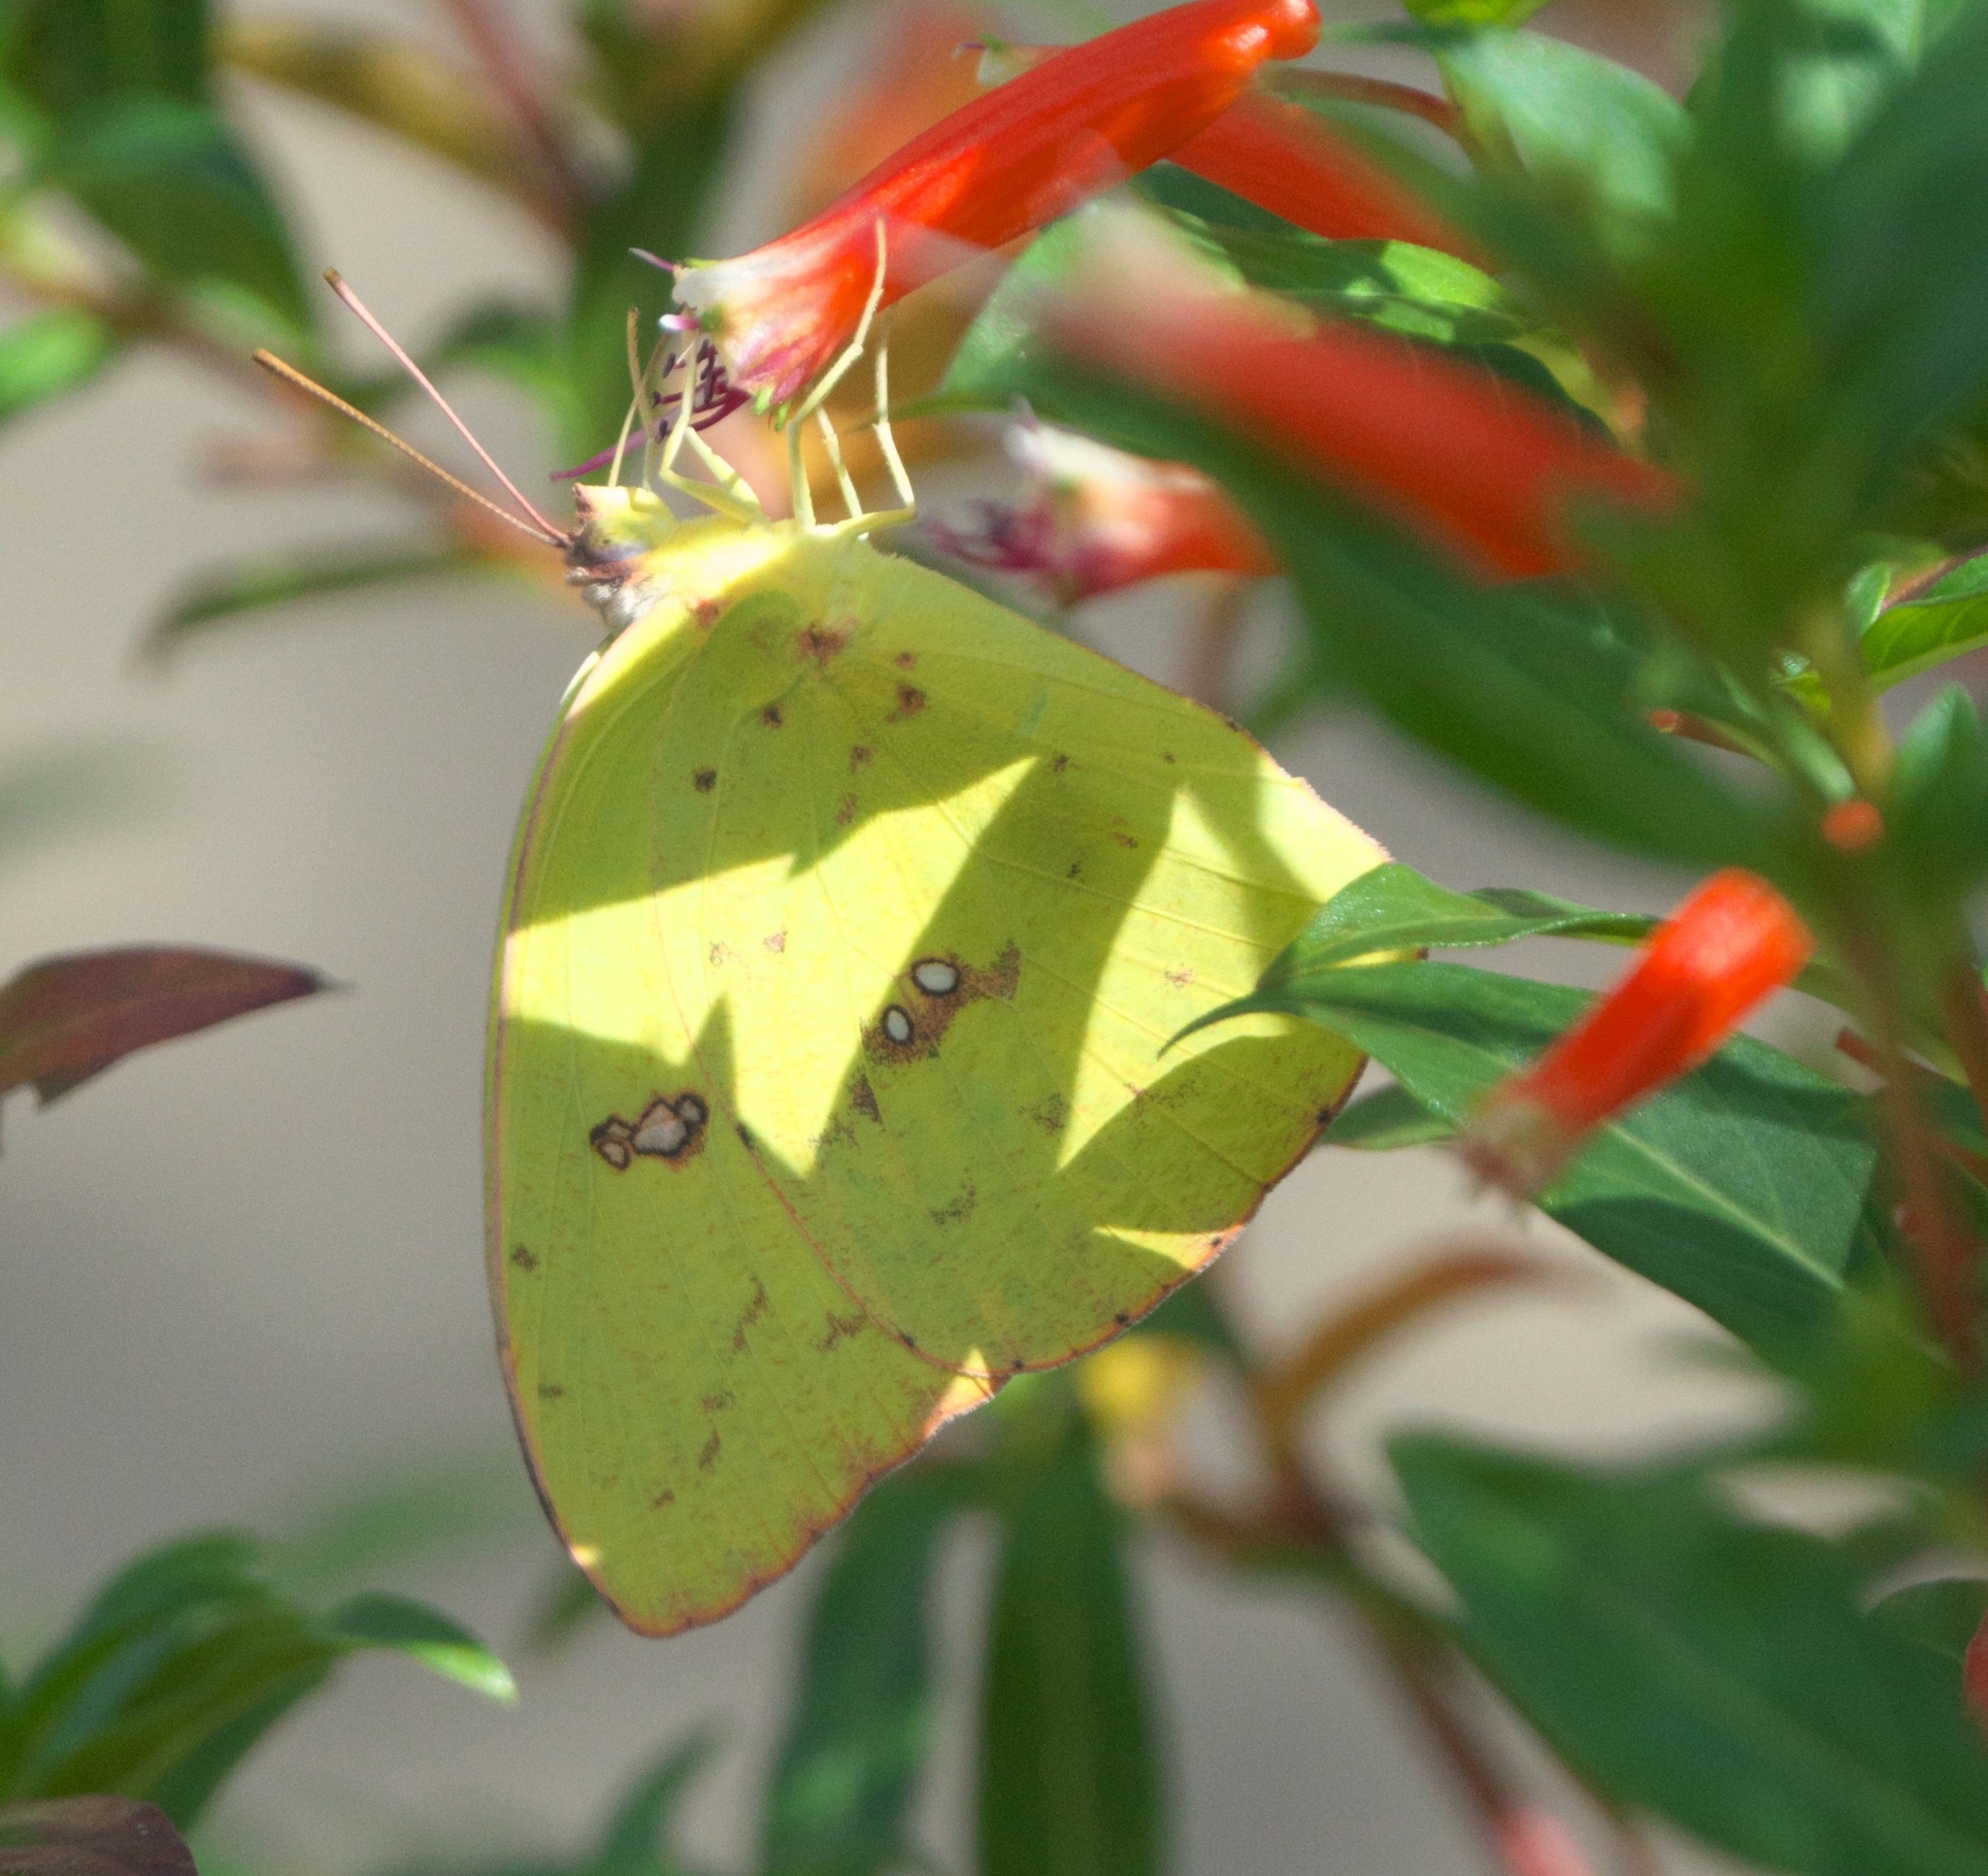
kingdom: Animalia
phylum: Arthropoda
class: Insecta
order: Lepidoptera
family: Pieridae
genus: Phoebis
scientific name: Phoebis sennae
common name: Cloudless sulphur
